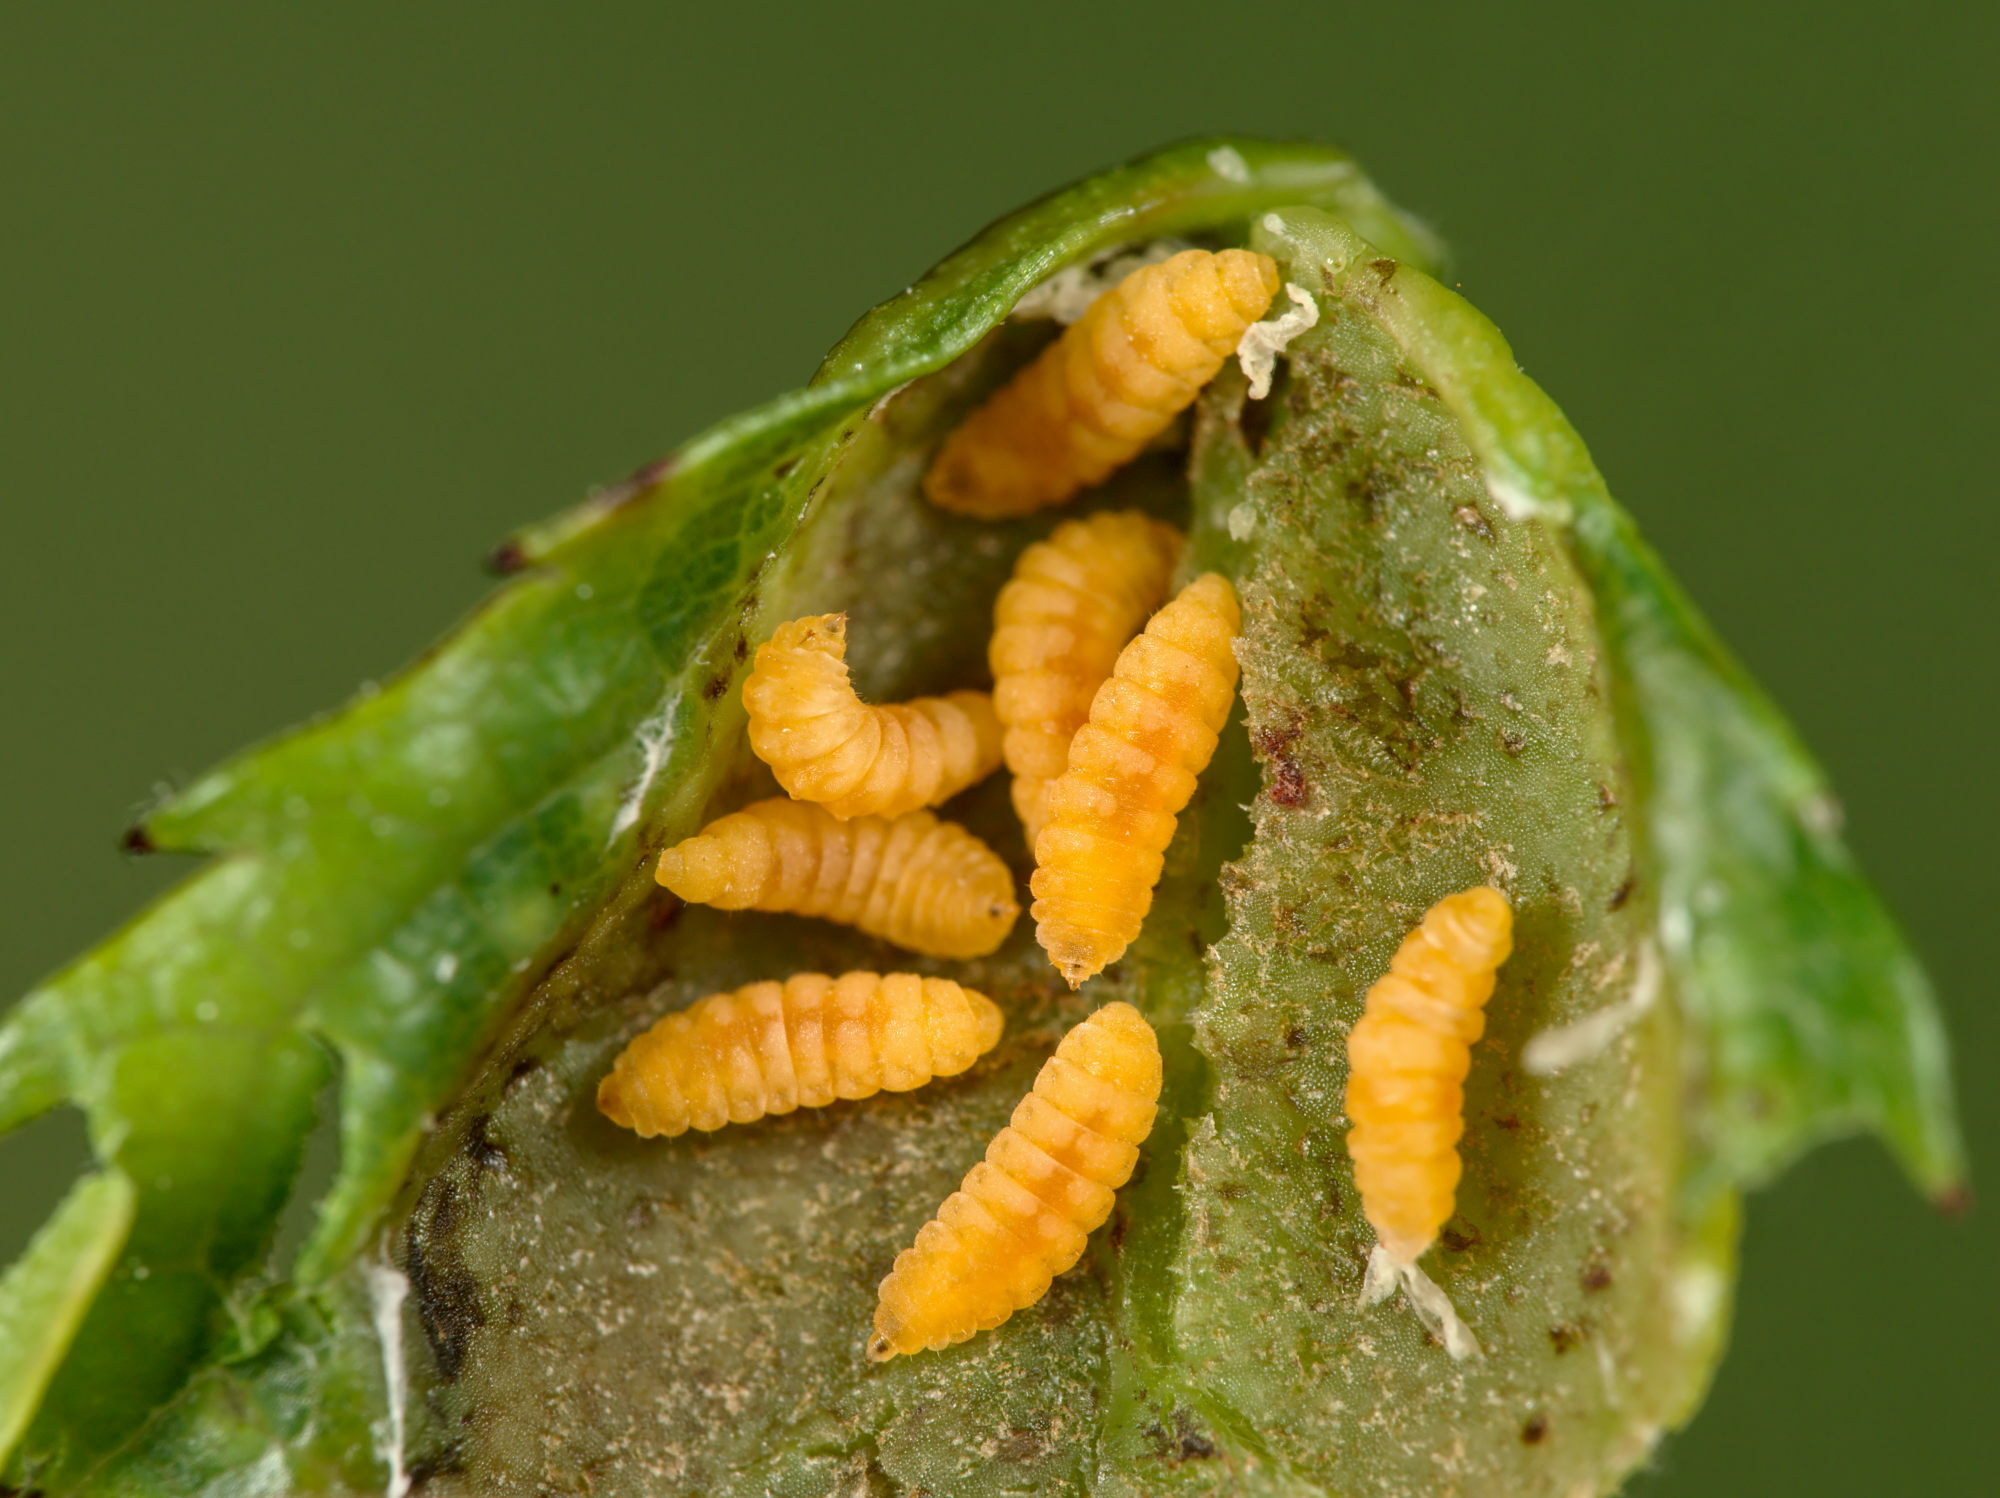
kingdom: Animalia
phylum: Arthropoda
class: Insecta
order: Diptera
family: Cecidomyiidae
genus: Wachtliella
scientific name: Wachtliella rosae
